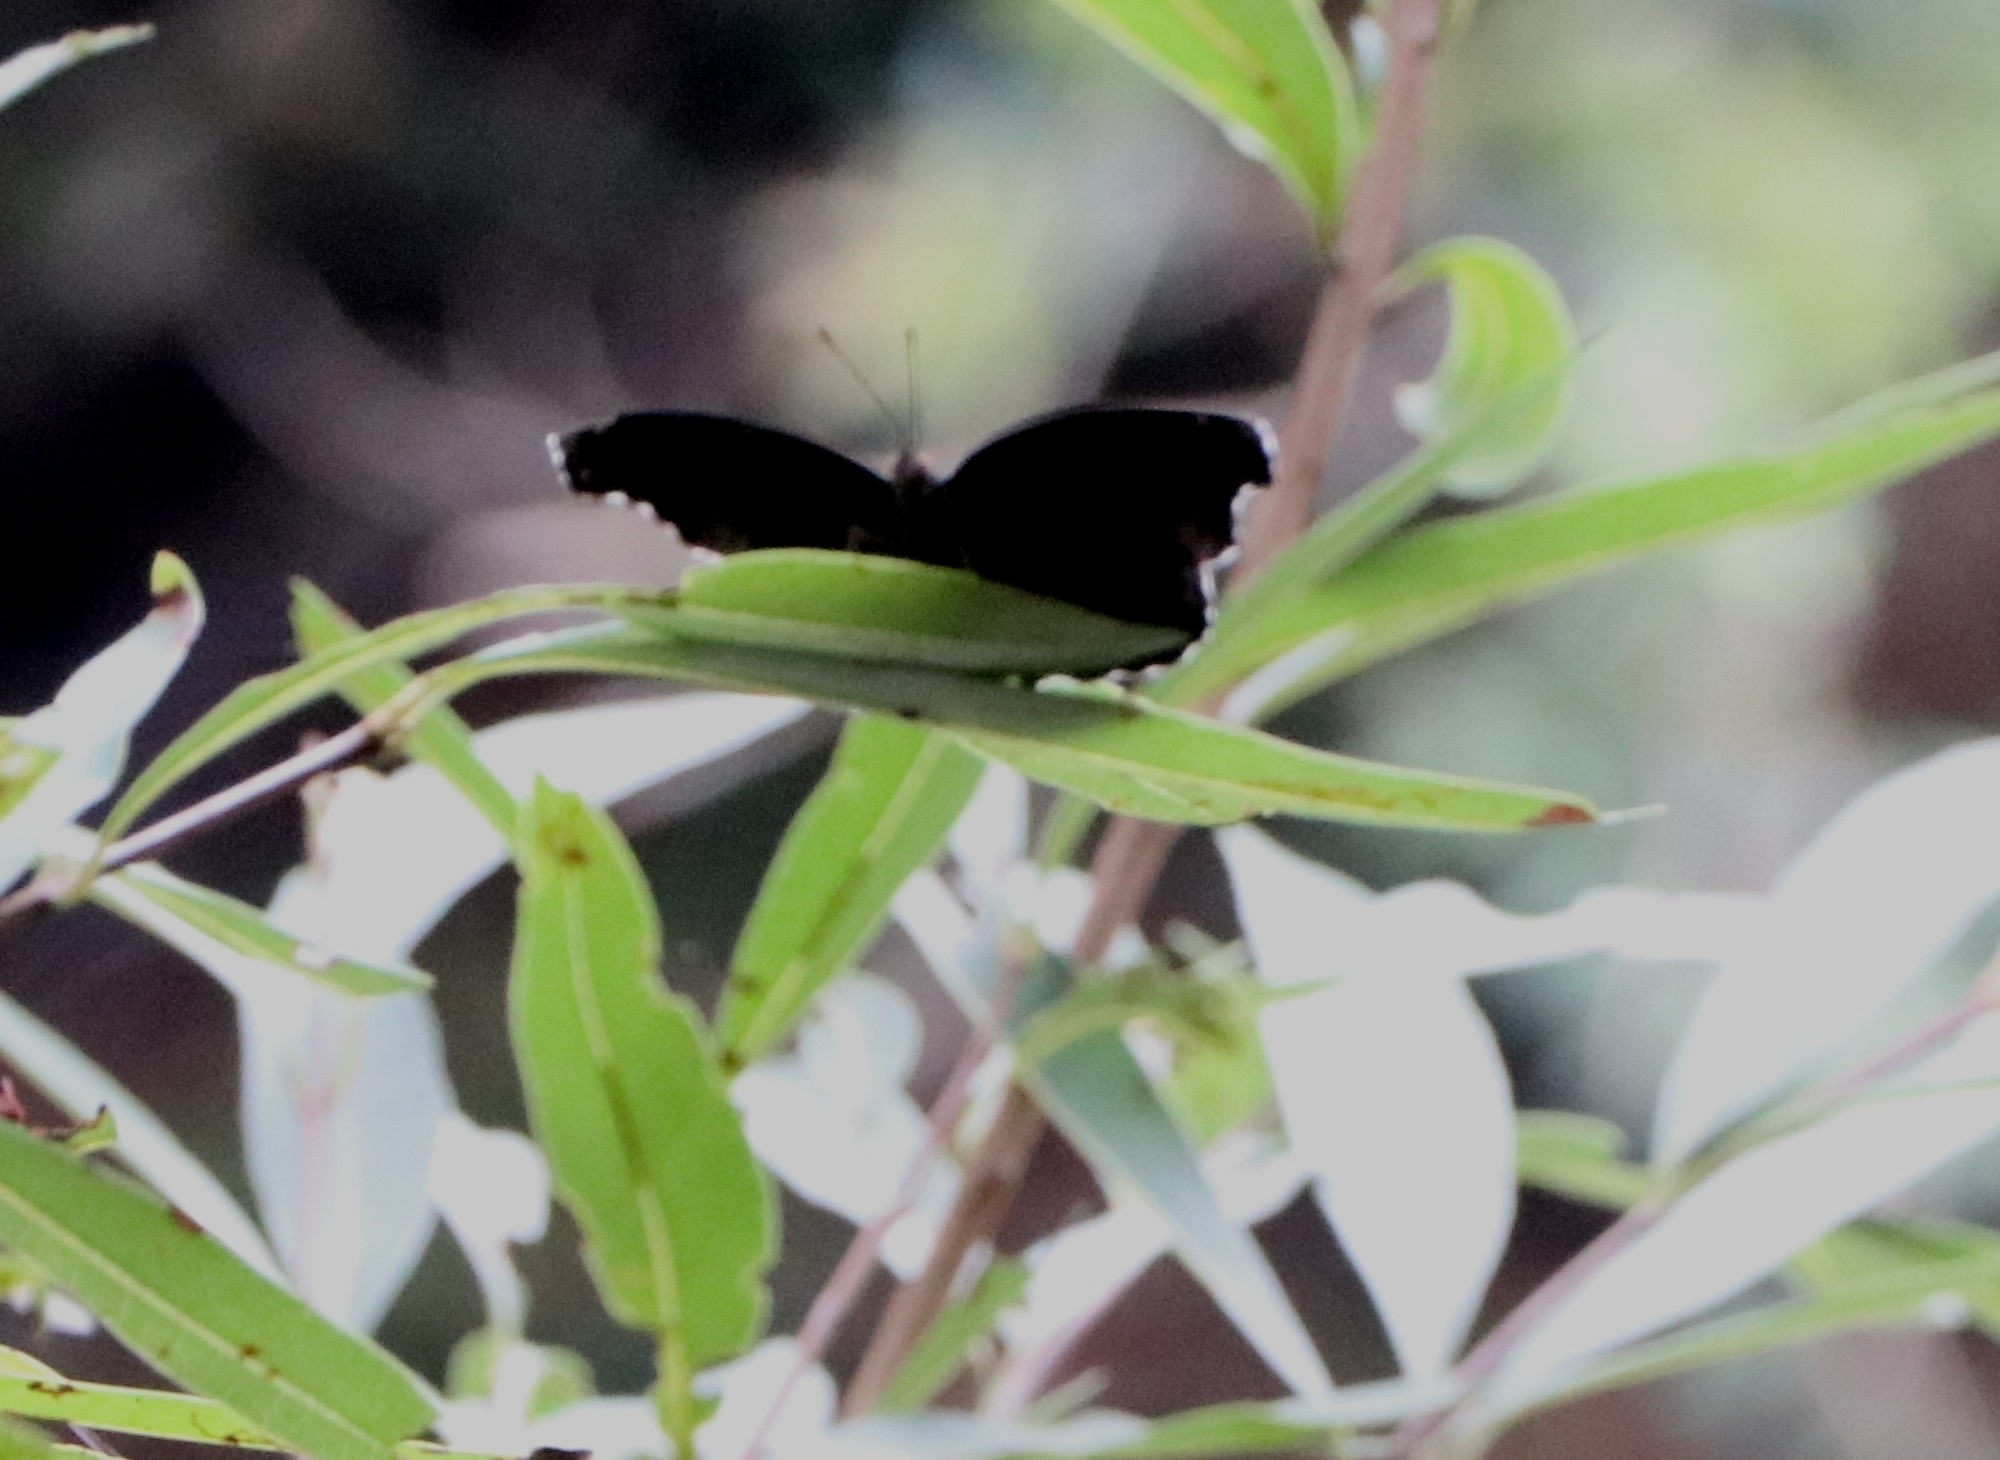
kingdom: Animalia
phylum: Arthropoda
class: Insecta
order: Lepidoptera
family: Nymphalidae
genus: Junonia
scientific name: Junonia iphita
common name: Chocolate pansy
